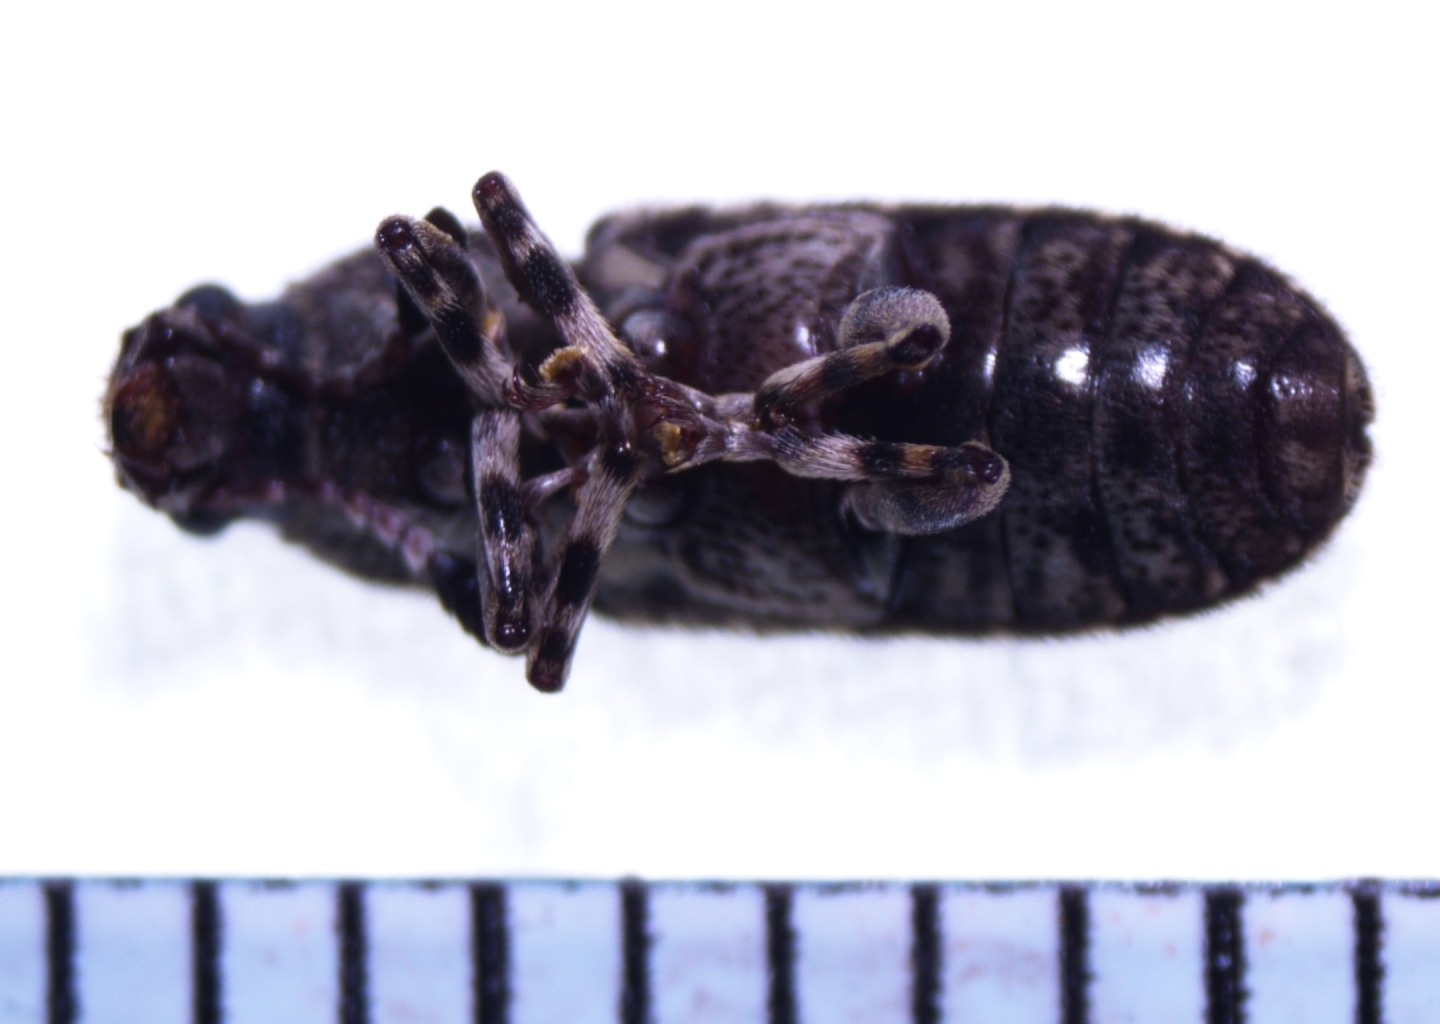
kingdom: Animalia
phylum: Arthropoda
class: Insecta
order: Coleoptera
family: Anthribidae
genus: Eucorynus
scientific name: Eucorynus crassicornis
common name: Fungus weevil
